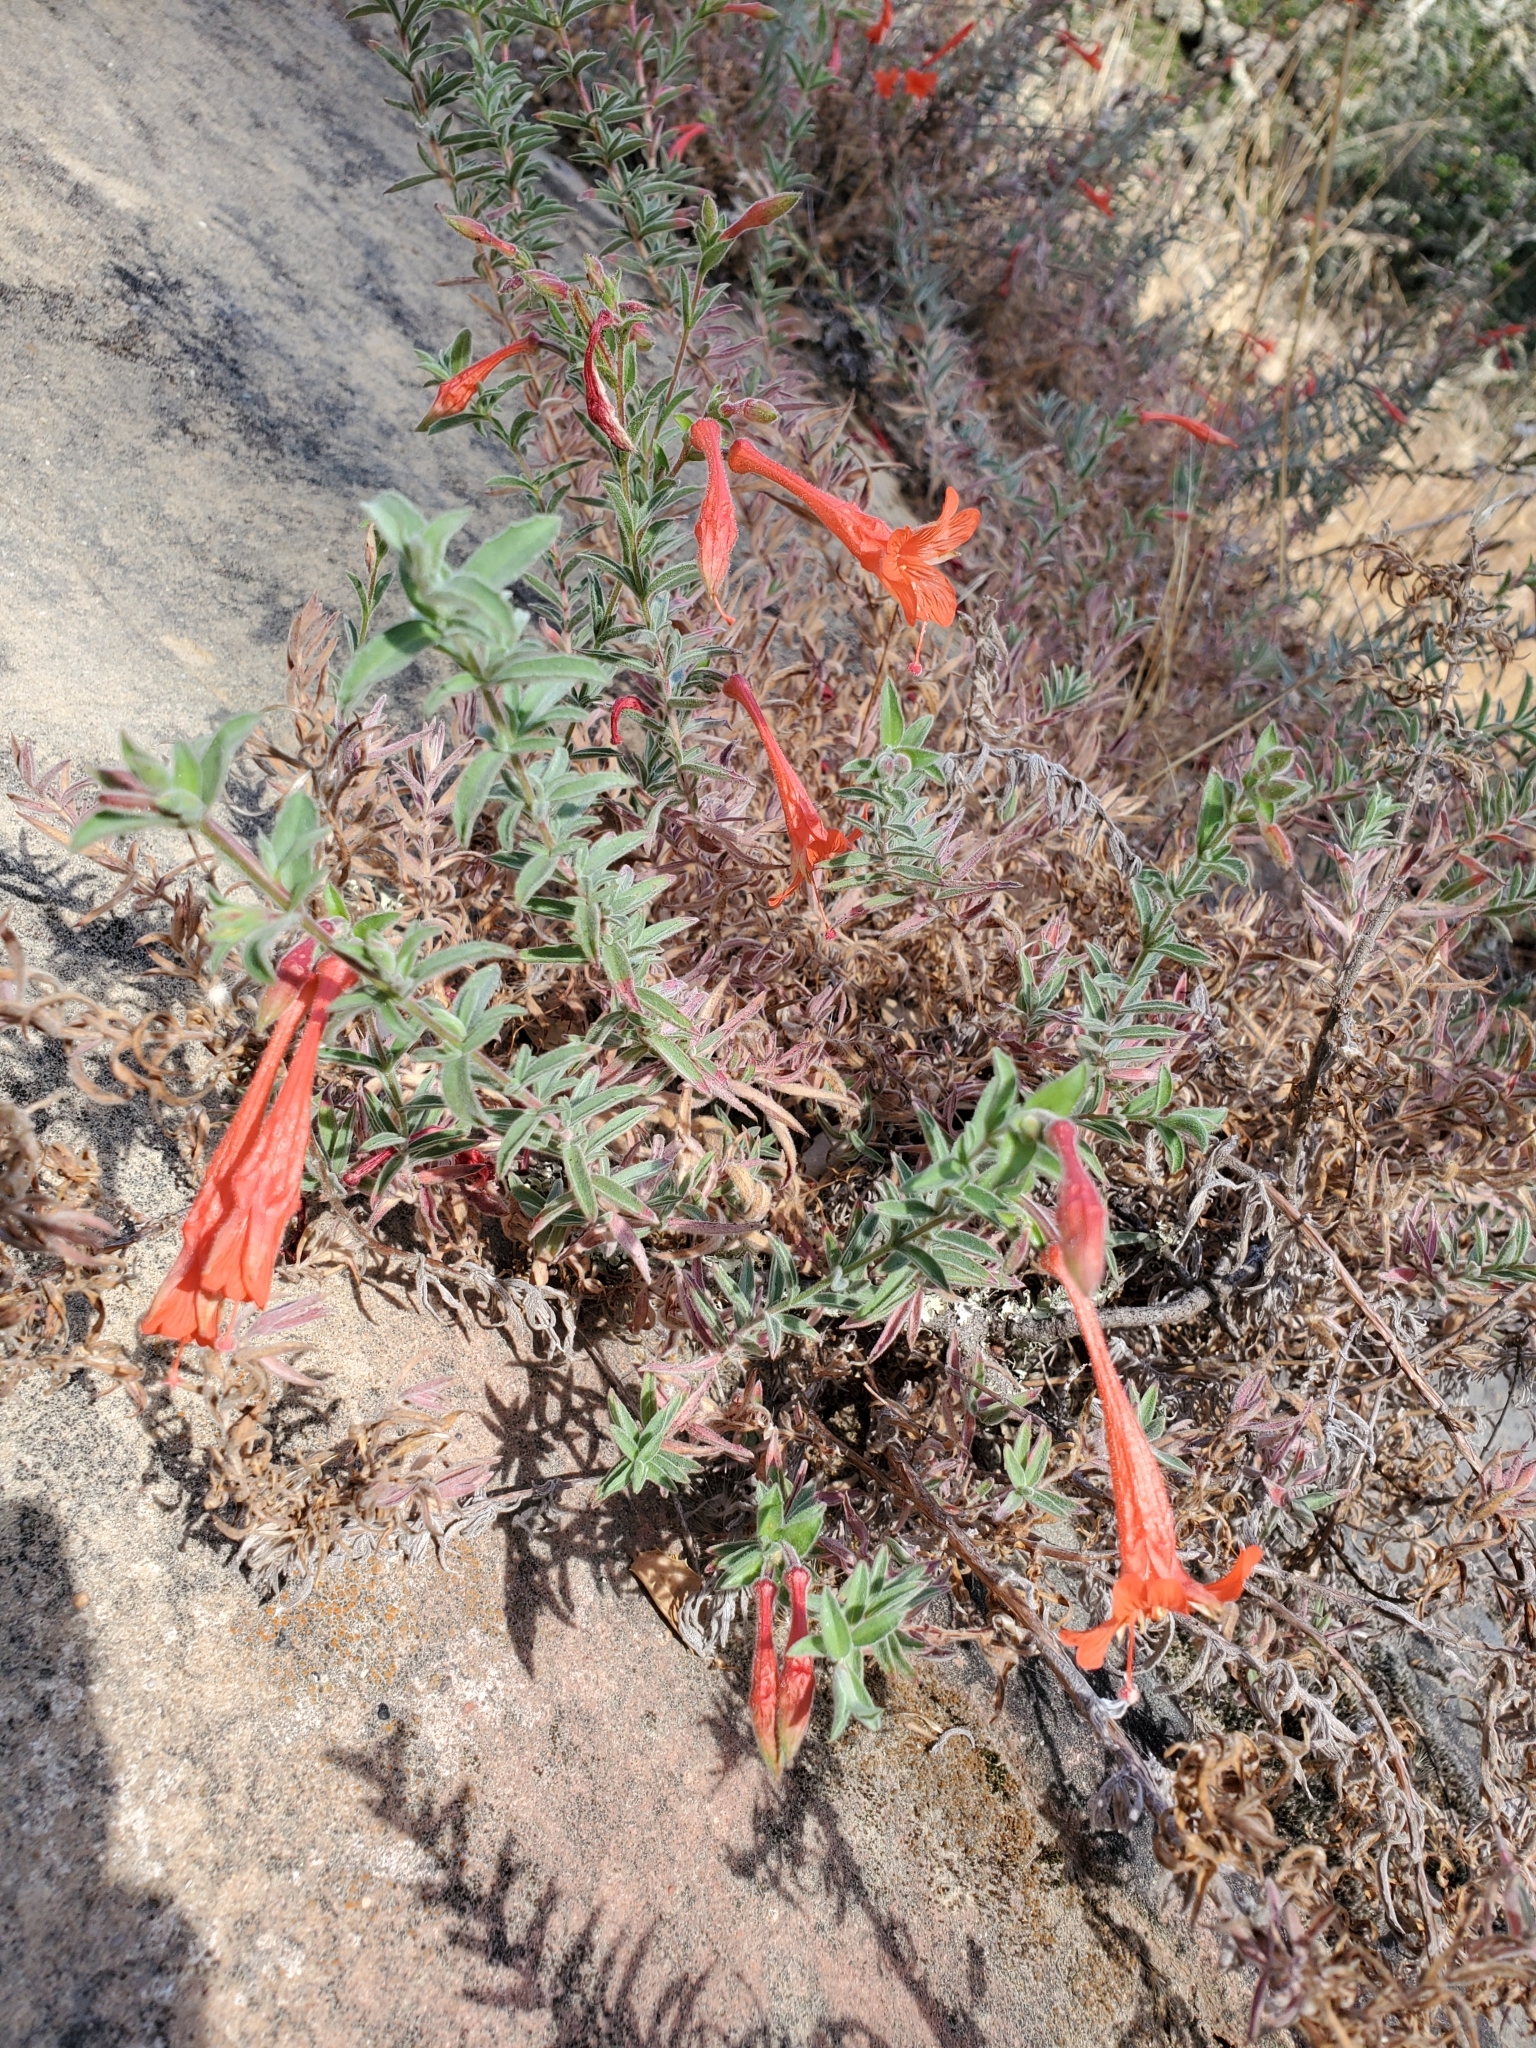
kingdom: Plantae
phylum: Tracheophyta
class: Magnoliopsida
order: Myrtales
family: Onagraceae
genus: Epilobium
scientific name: Epilobium canum
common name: California-fuchsia
